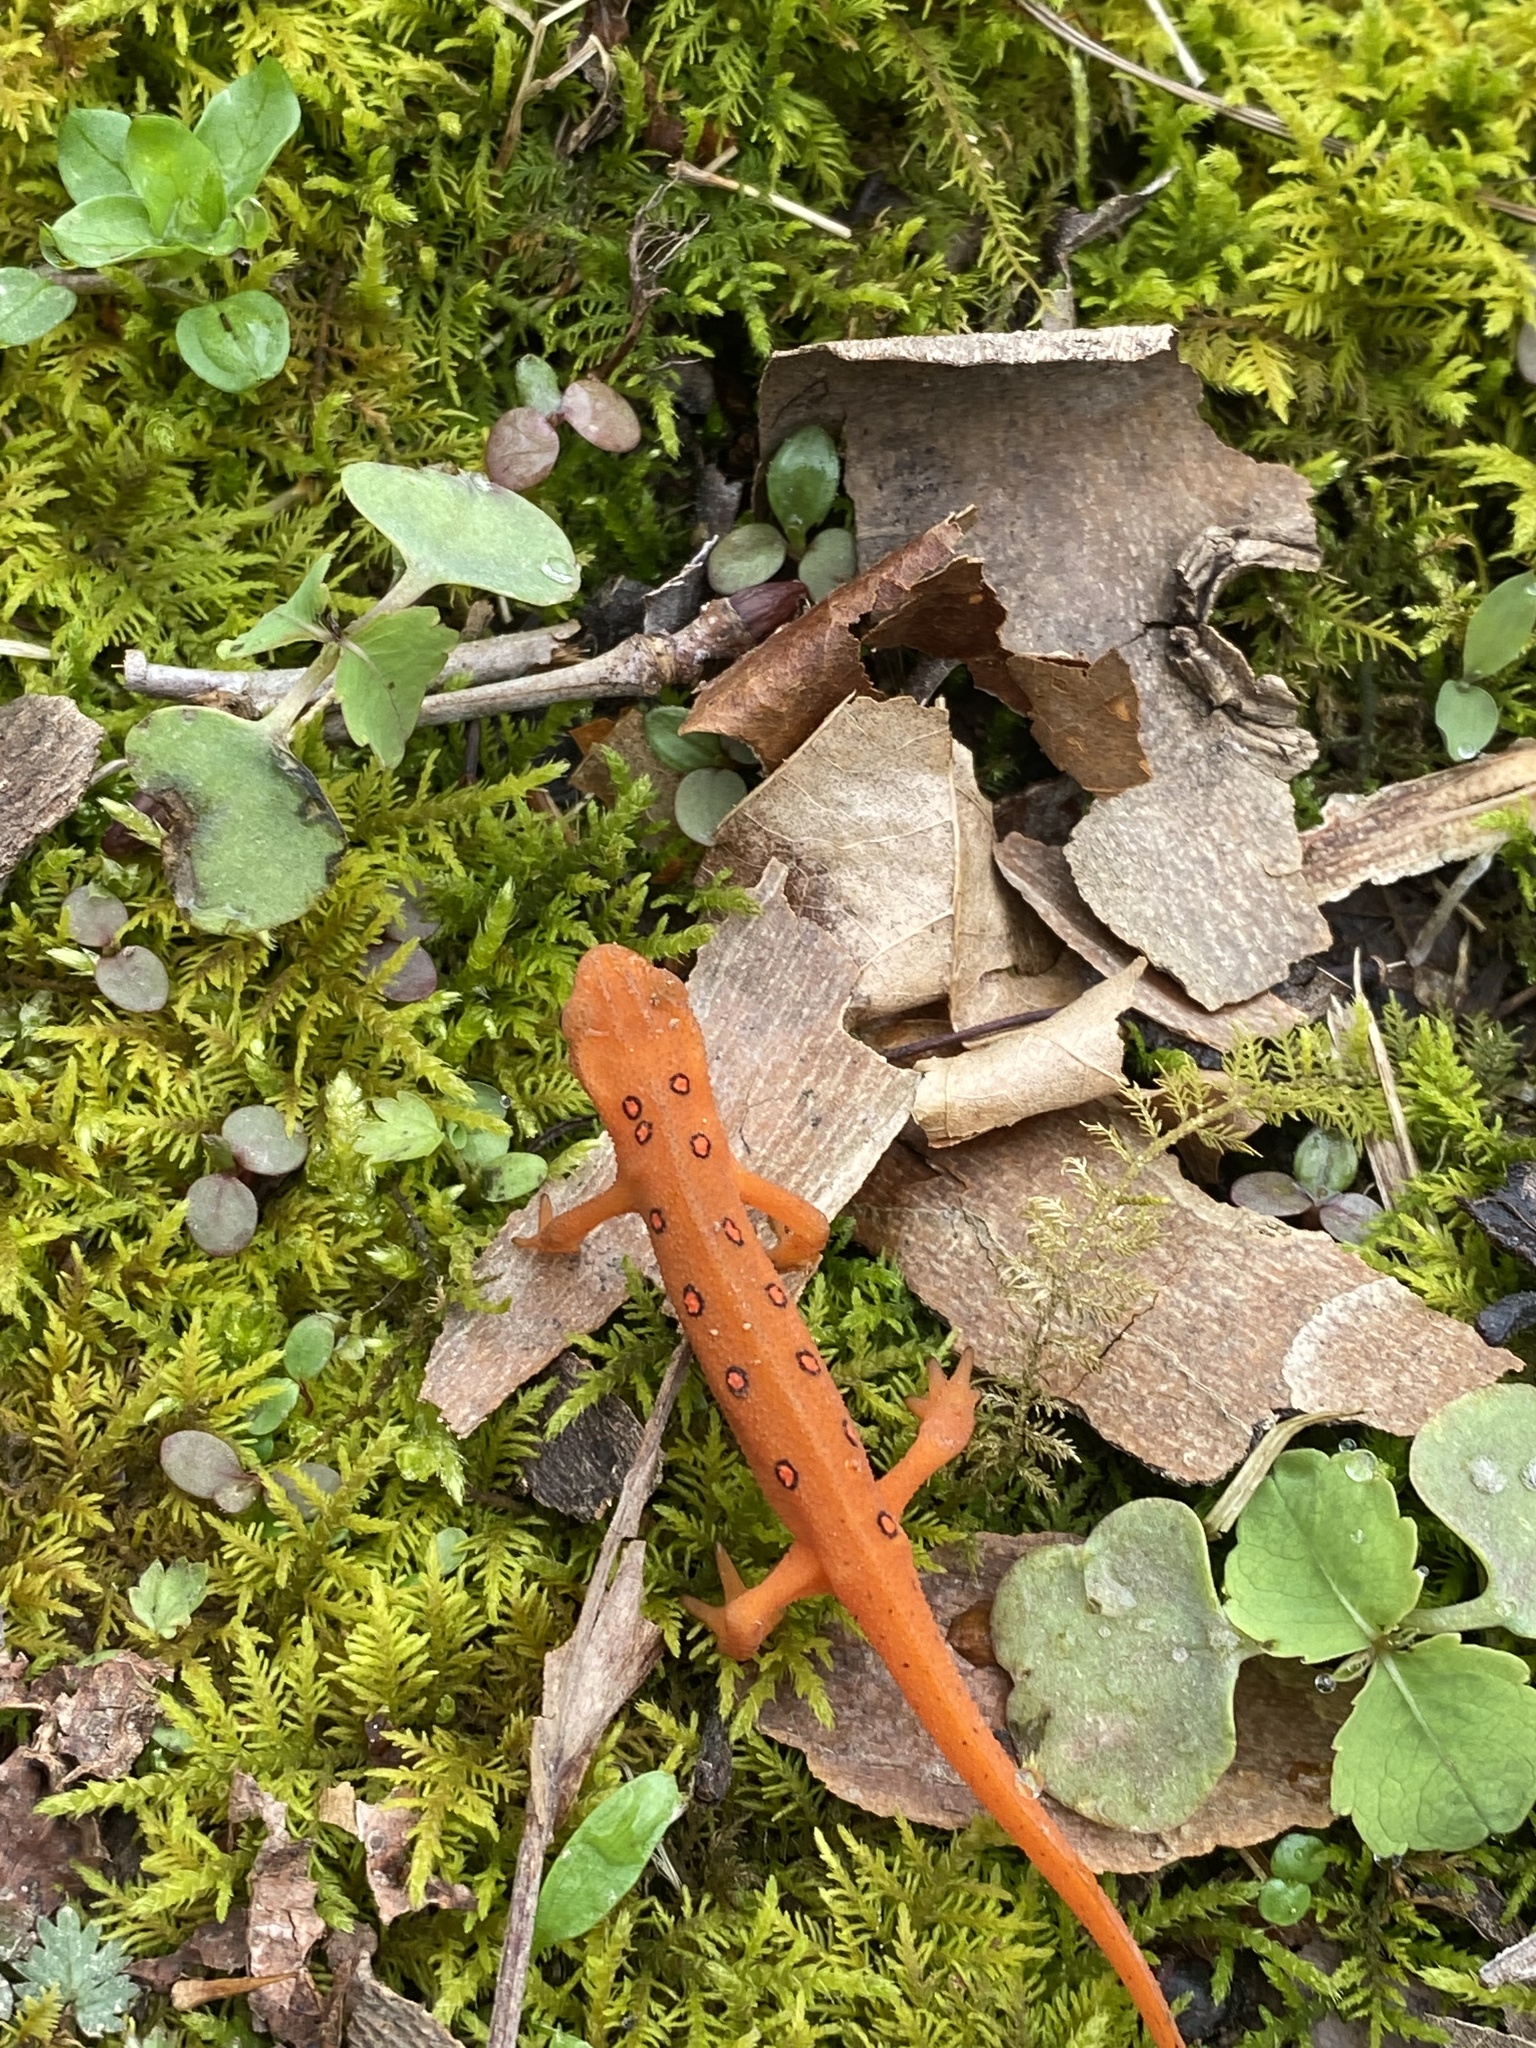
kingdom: Animalia
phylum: Chordata
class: Amphibia
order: Caudata
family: Salamandridae
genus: Notophthalmus
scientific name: Notophthalmus viridescens
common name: Eastern newt
